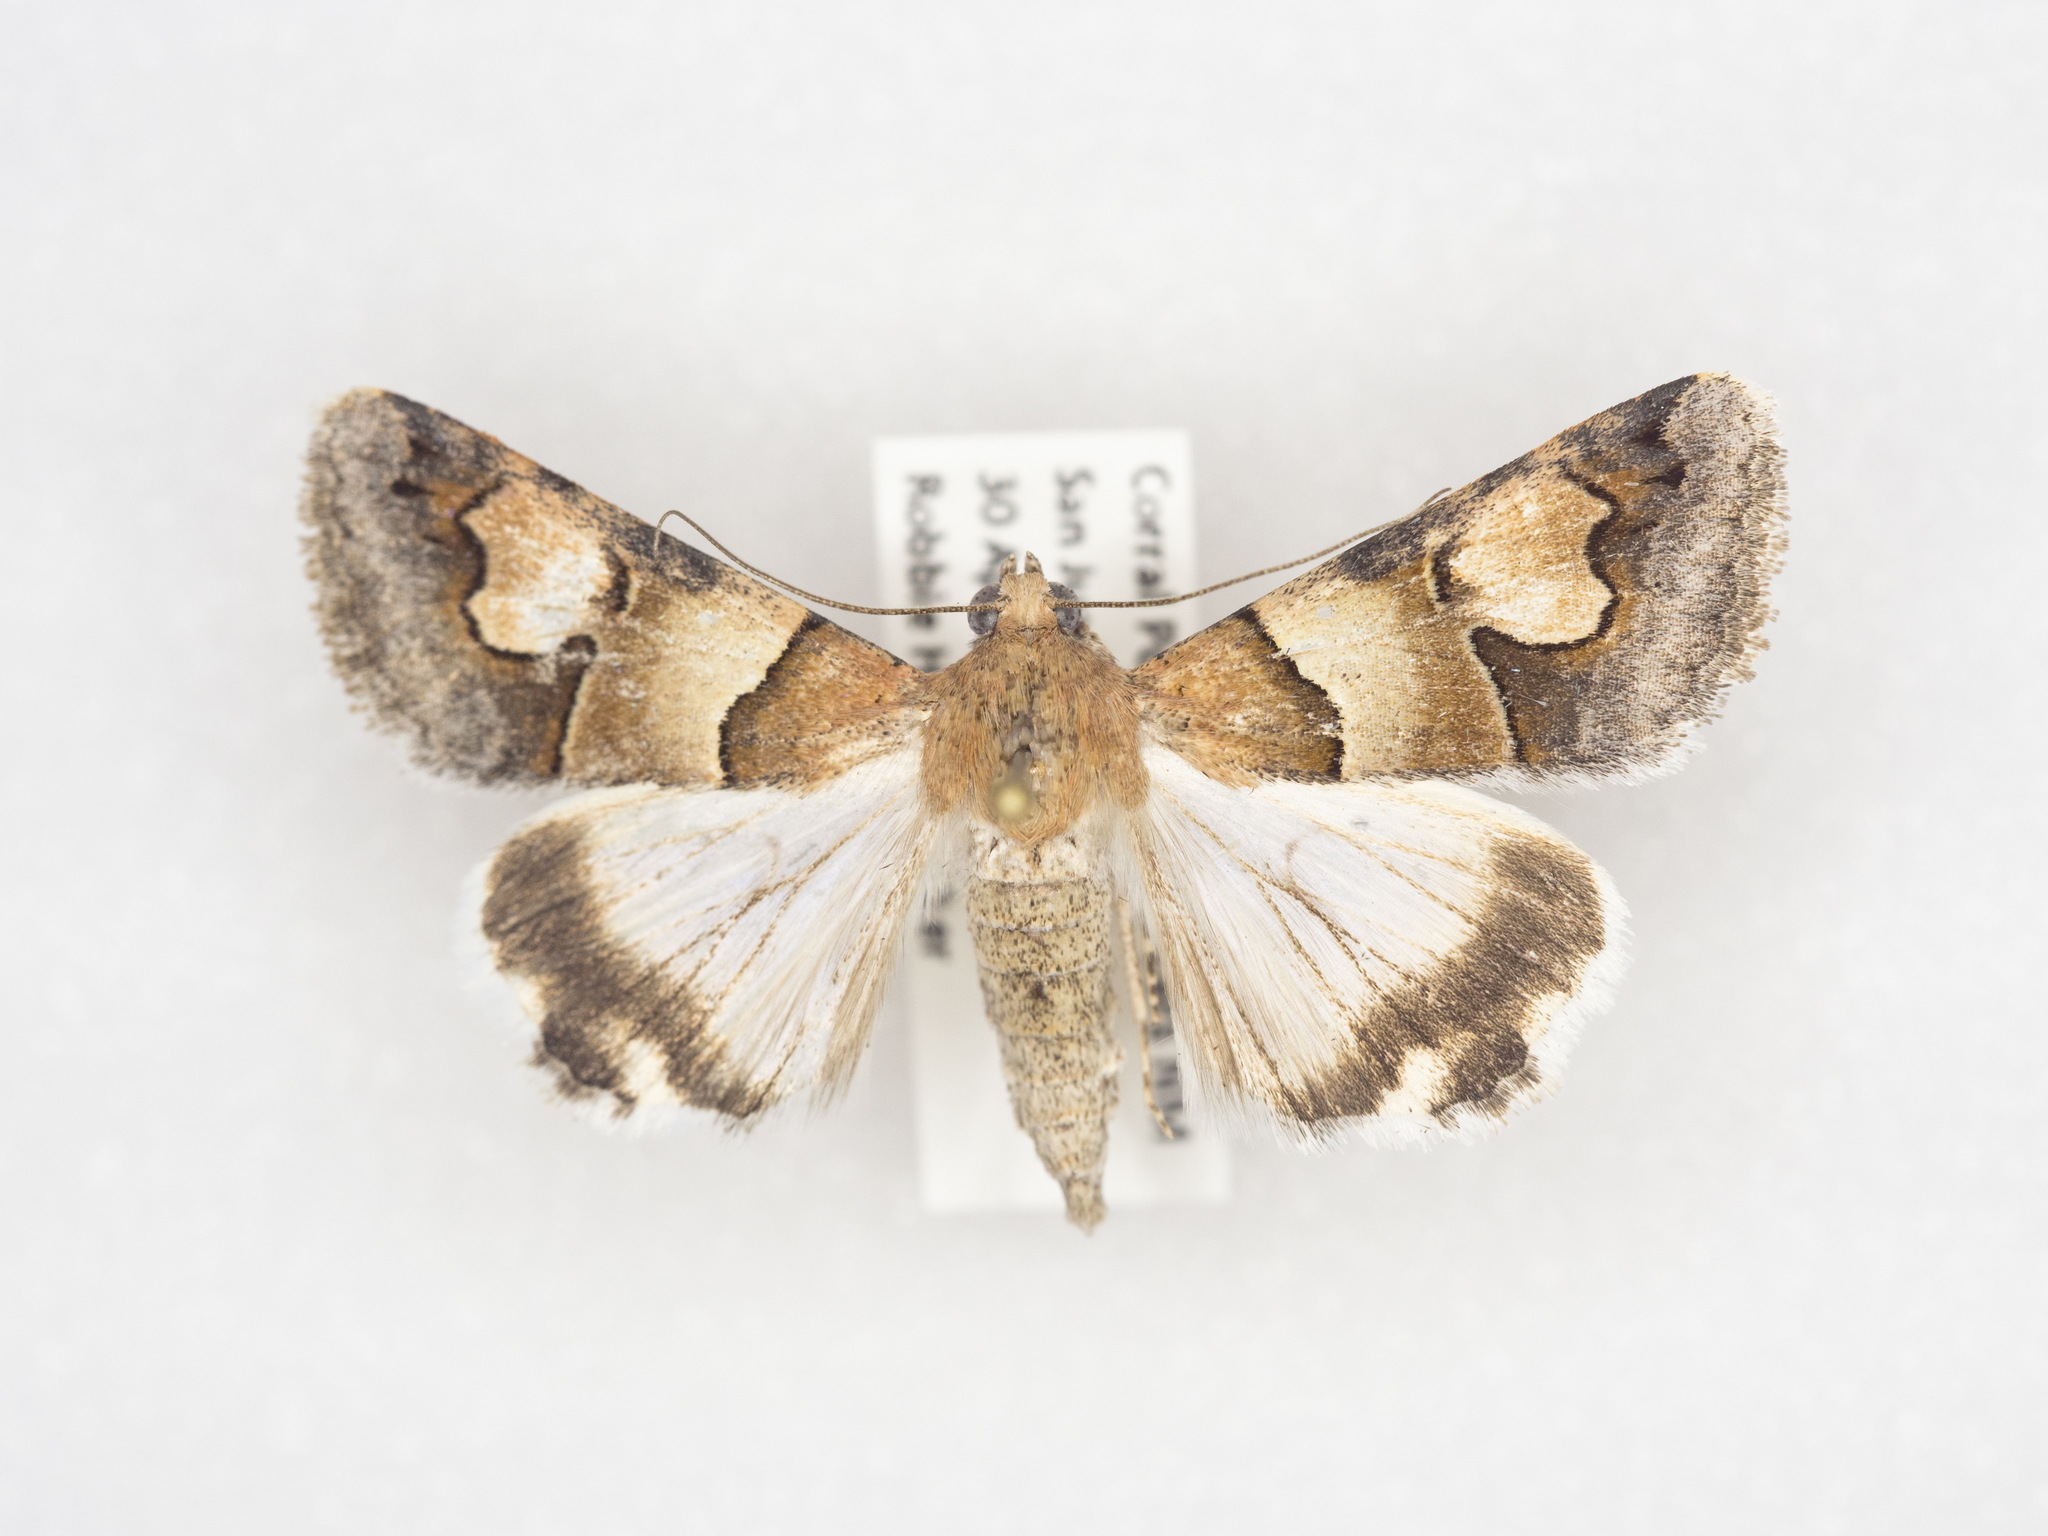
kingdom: Animalia
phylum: Arthropoda
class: Insecta
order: Lepidoptera
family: Erebidae
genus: Drasteria
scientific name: Drasteria pallescens
